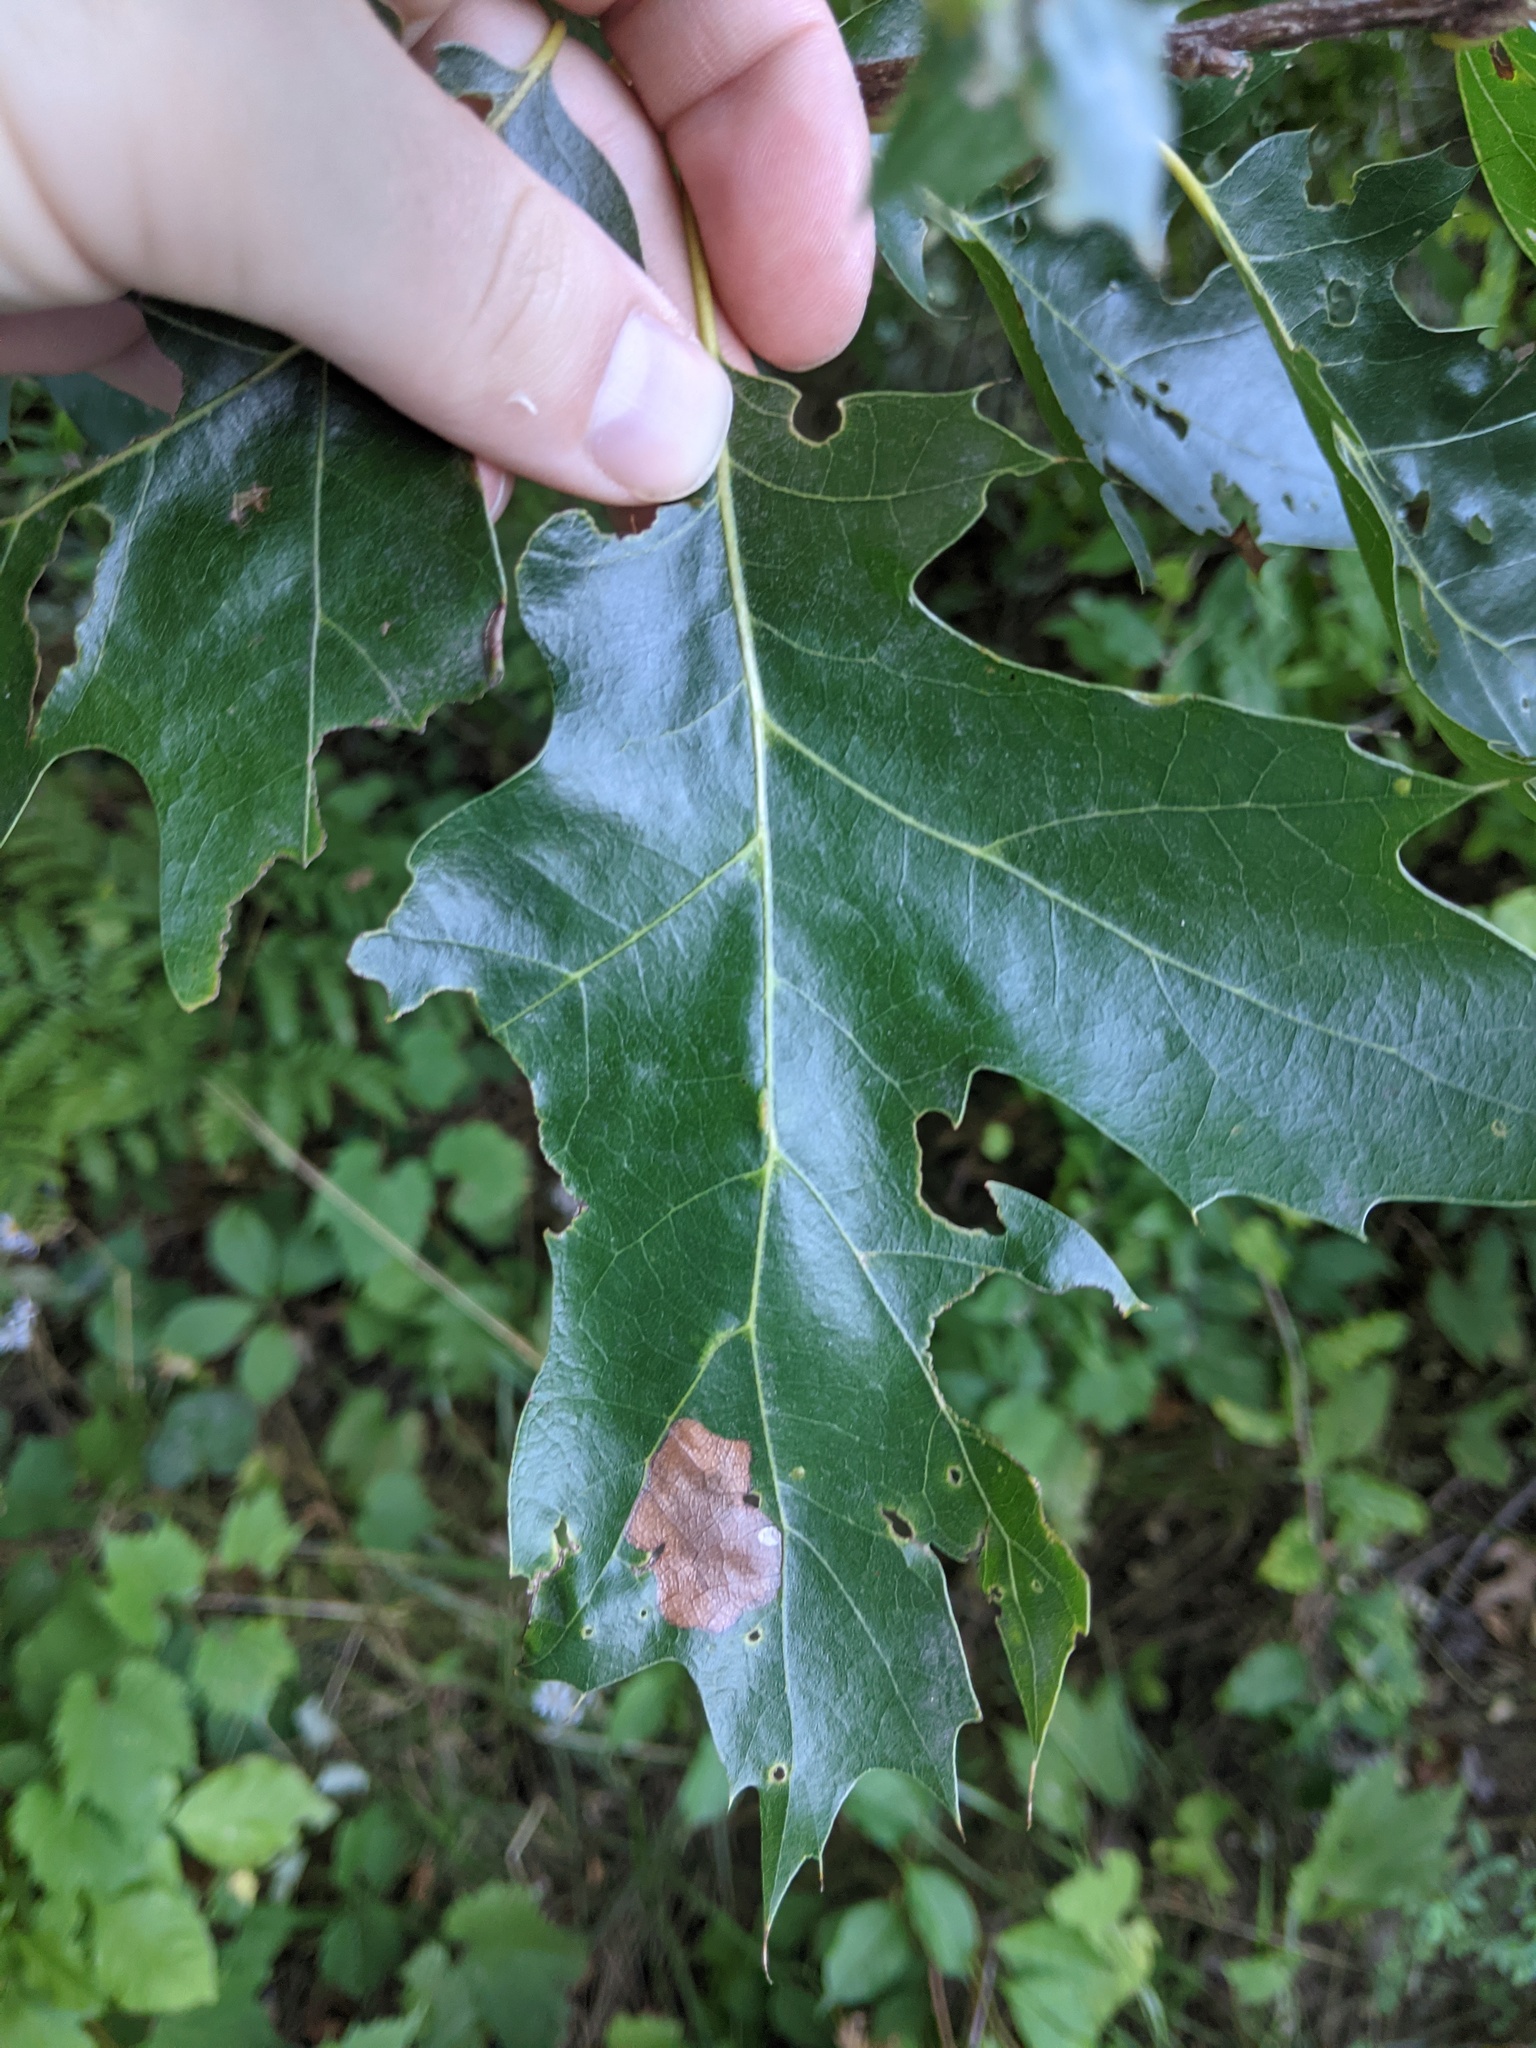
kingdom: Plantae
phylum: Tracheophyta
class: Magnoliopsida
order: Fagales
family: Fagaceae
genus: Quercus
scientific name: Quercus rubra
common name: Red oak
